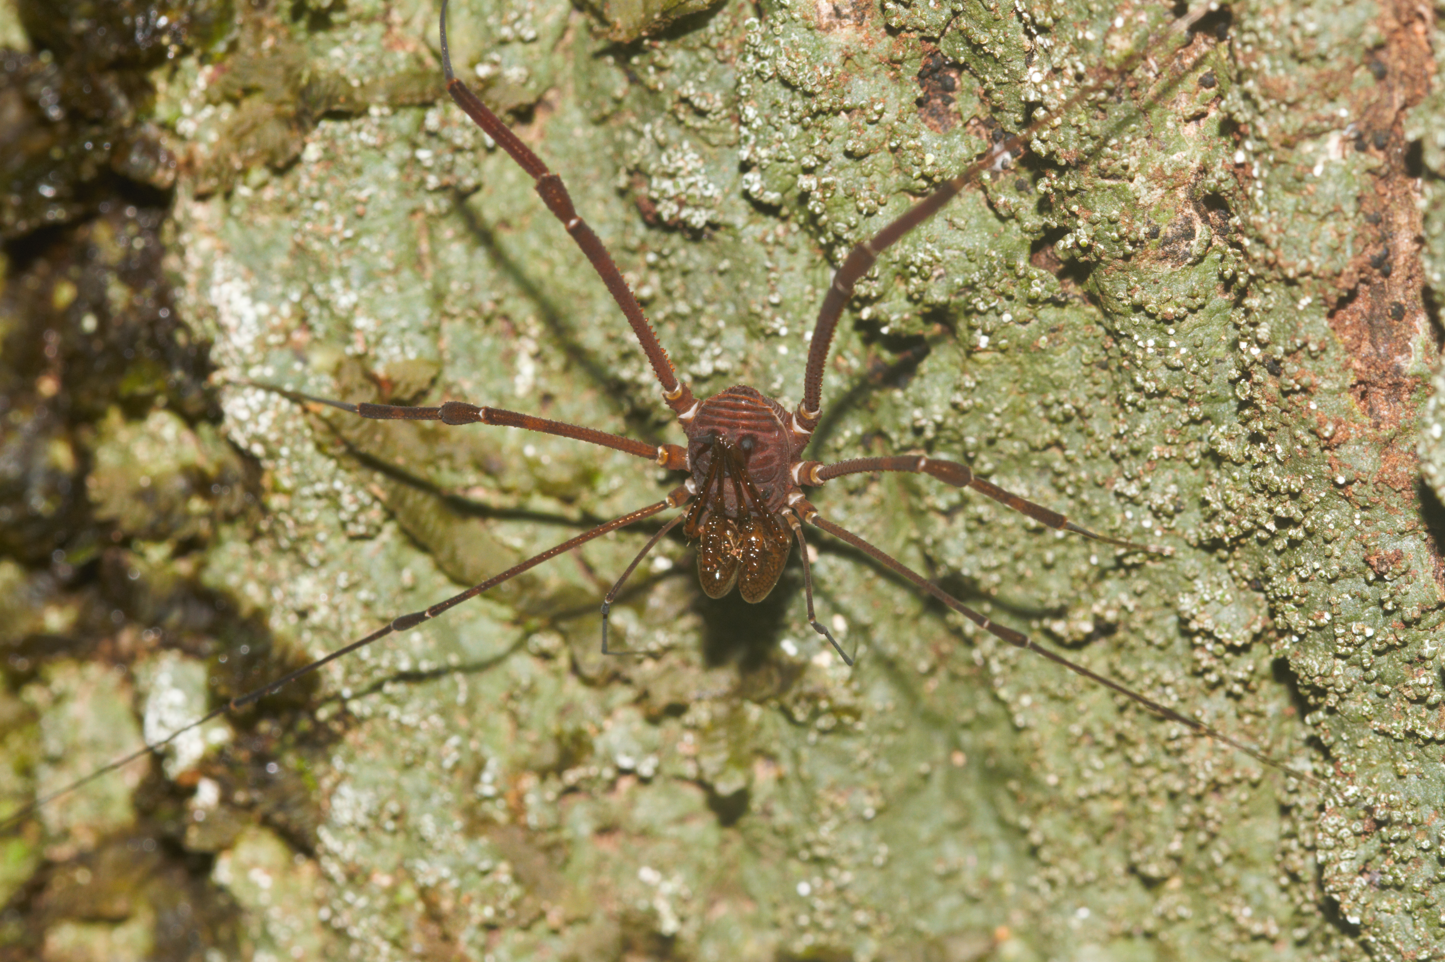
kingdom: Animalia
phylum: Arthropoda
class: Arachnida
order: Opiliones
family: Stygnidae
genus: Protimesius
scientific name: Protimesius gracilis
